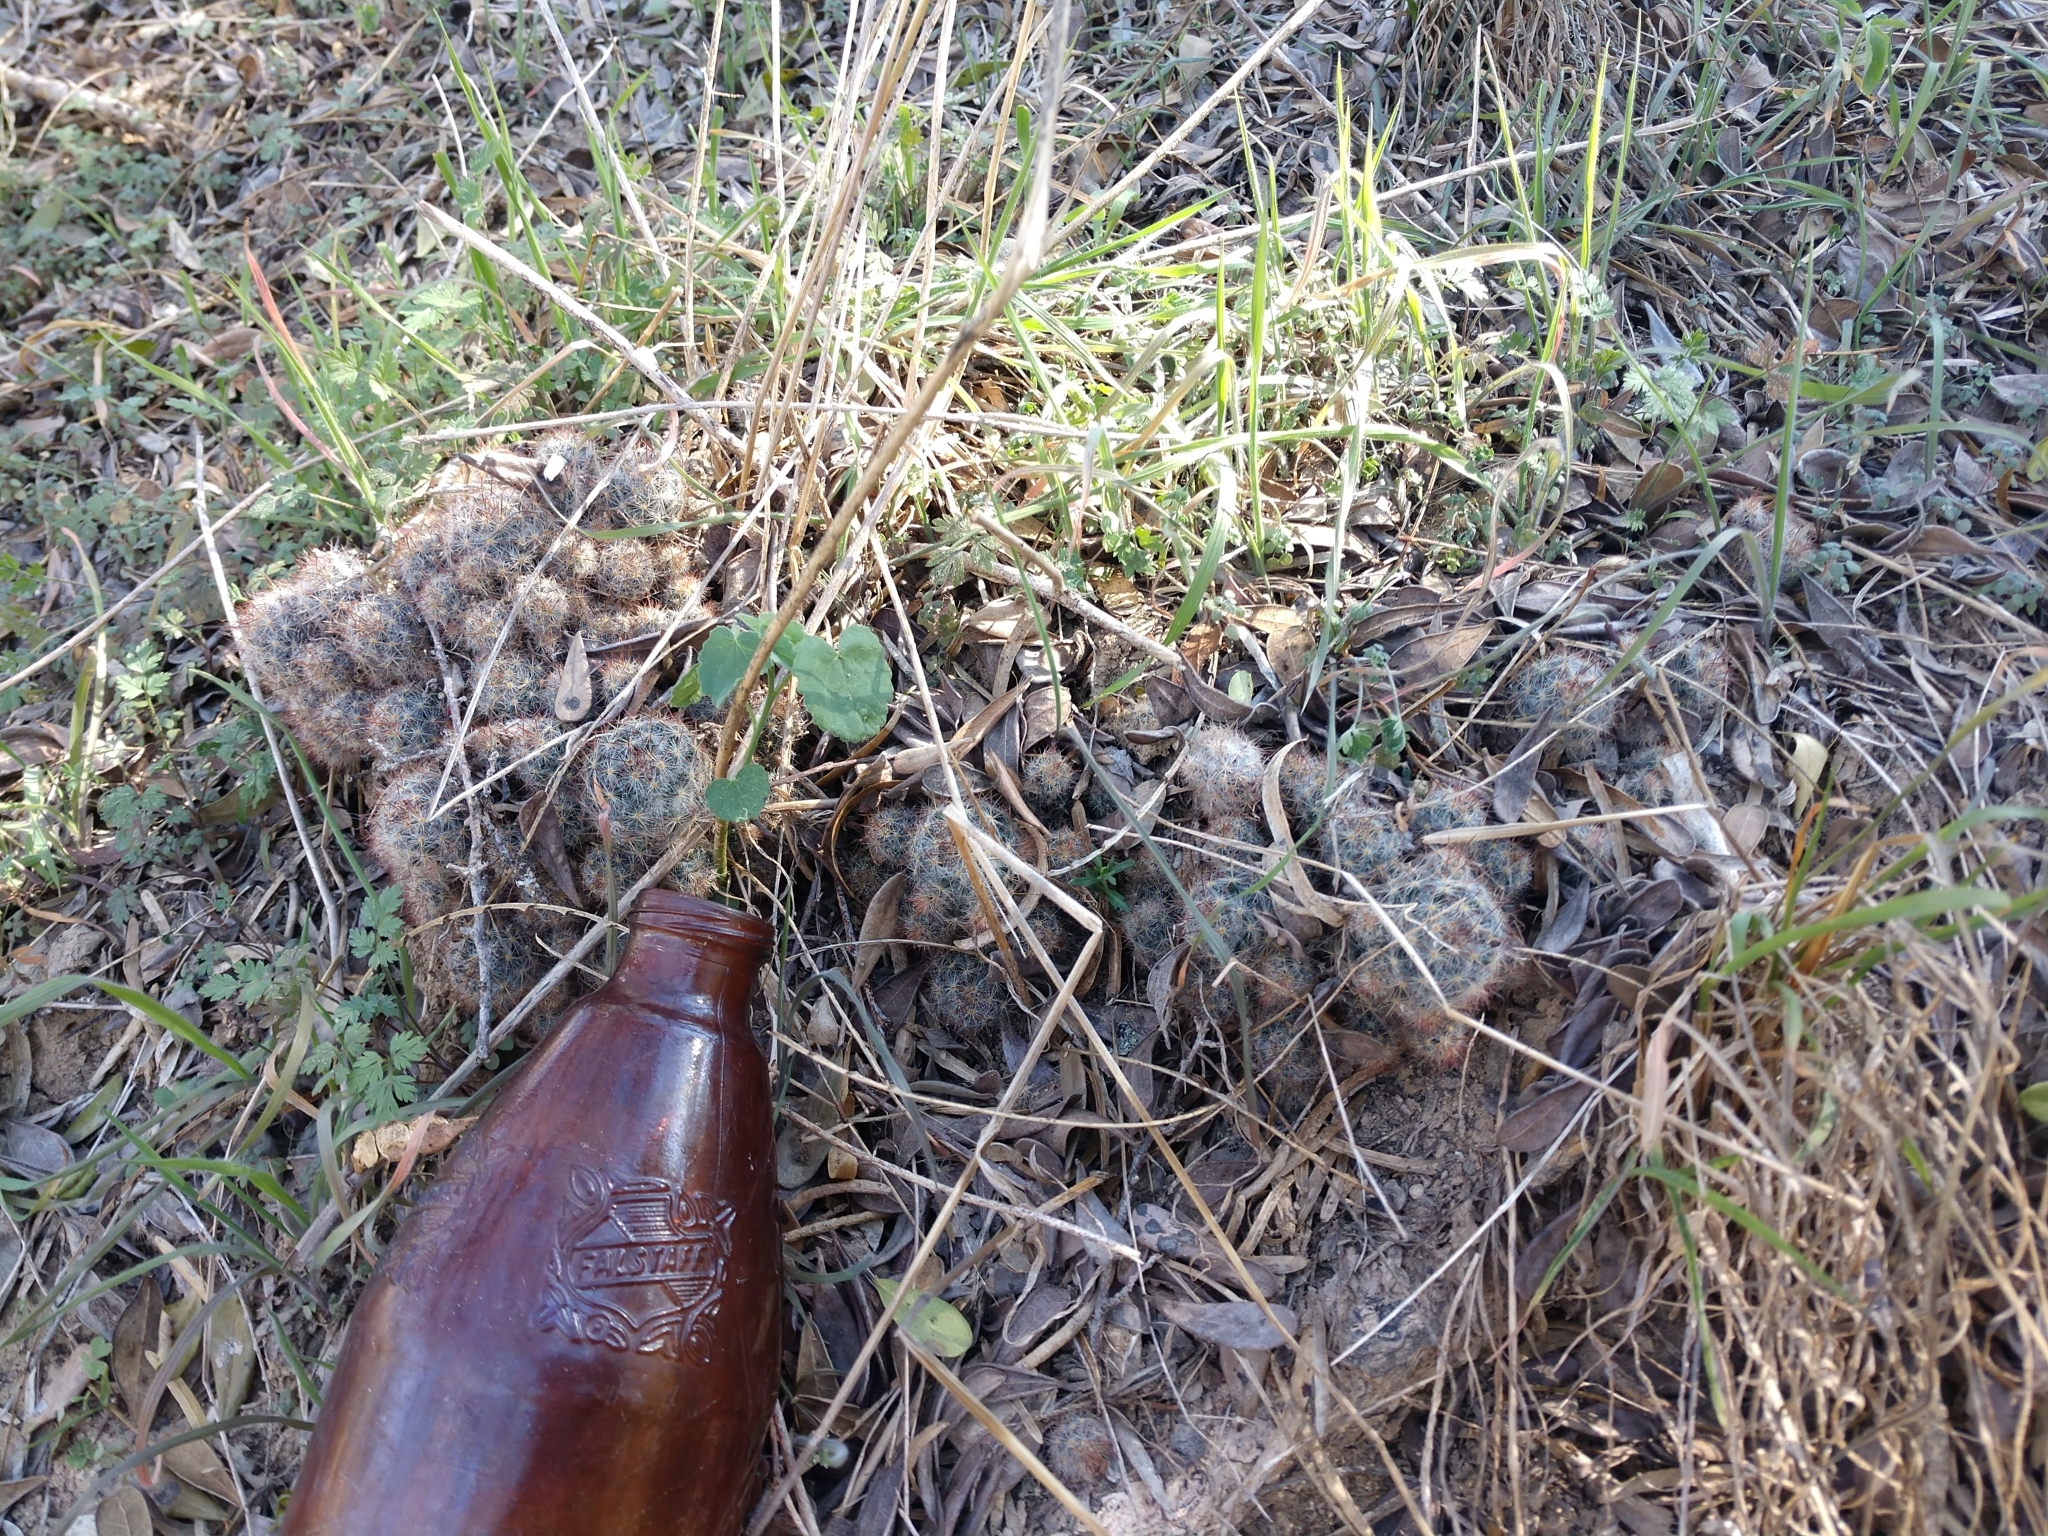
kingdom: Plantae
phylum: Tracheophyta
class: Magnoliopsida
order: Caryophyllales
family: Cactaceae
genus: Mammillaria
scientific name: Mammillaria prolifera
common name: Texas nipple cactus
